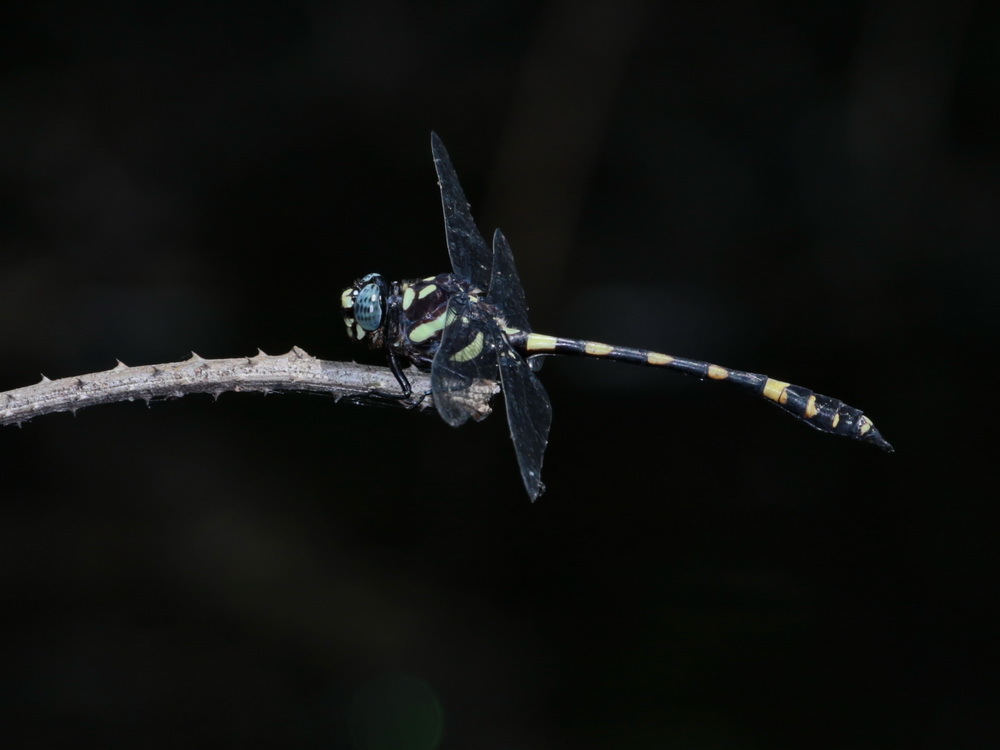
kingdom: Animalia
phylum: Arthropoda
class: Insecta
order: Odonata
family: Gomphidae
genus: Gomphidia
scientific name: Gomphidia abbotti
